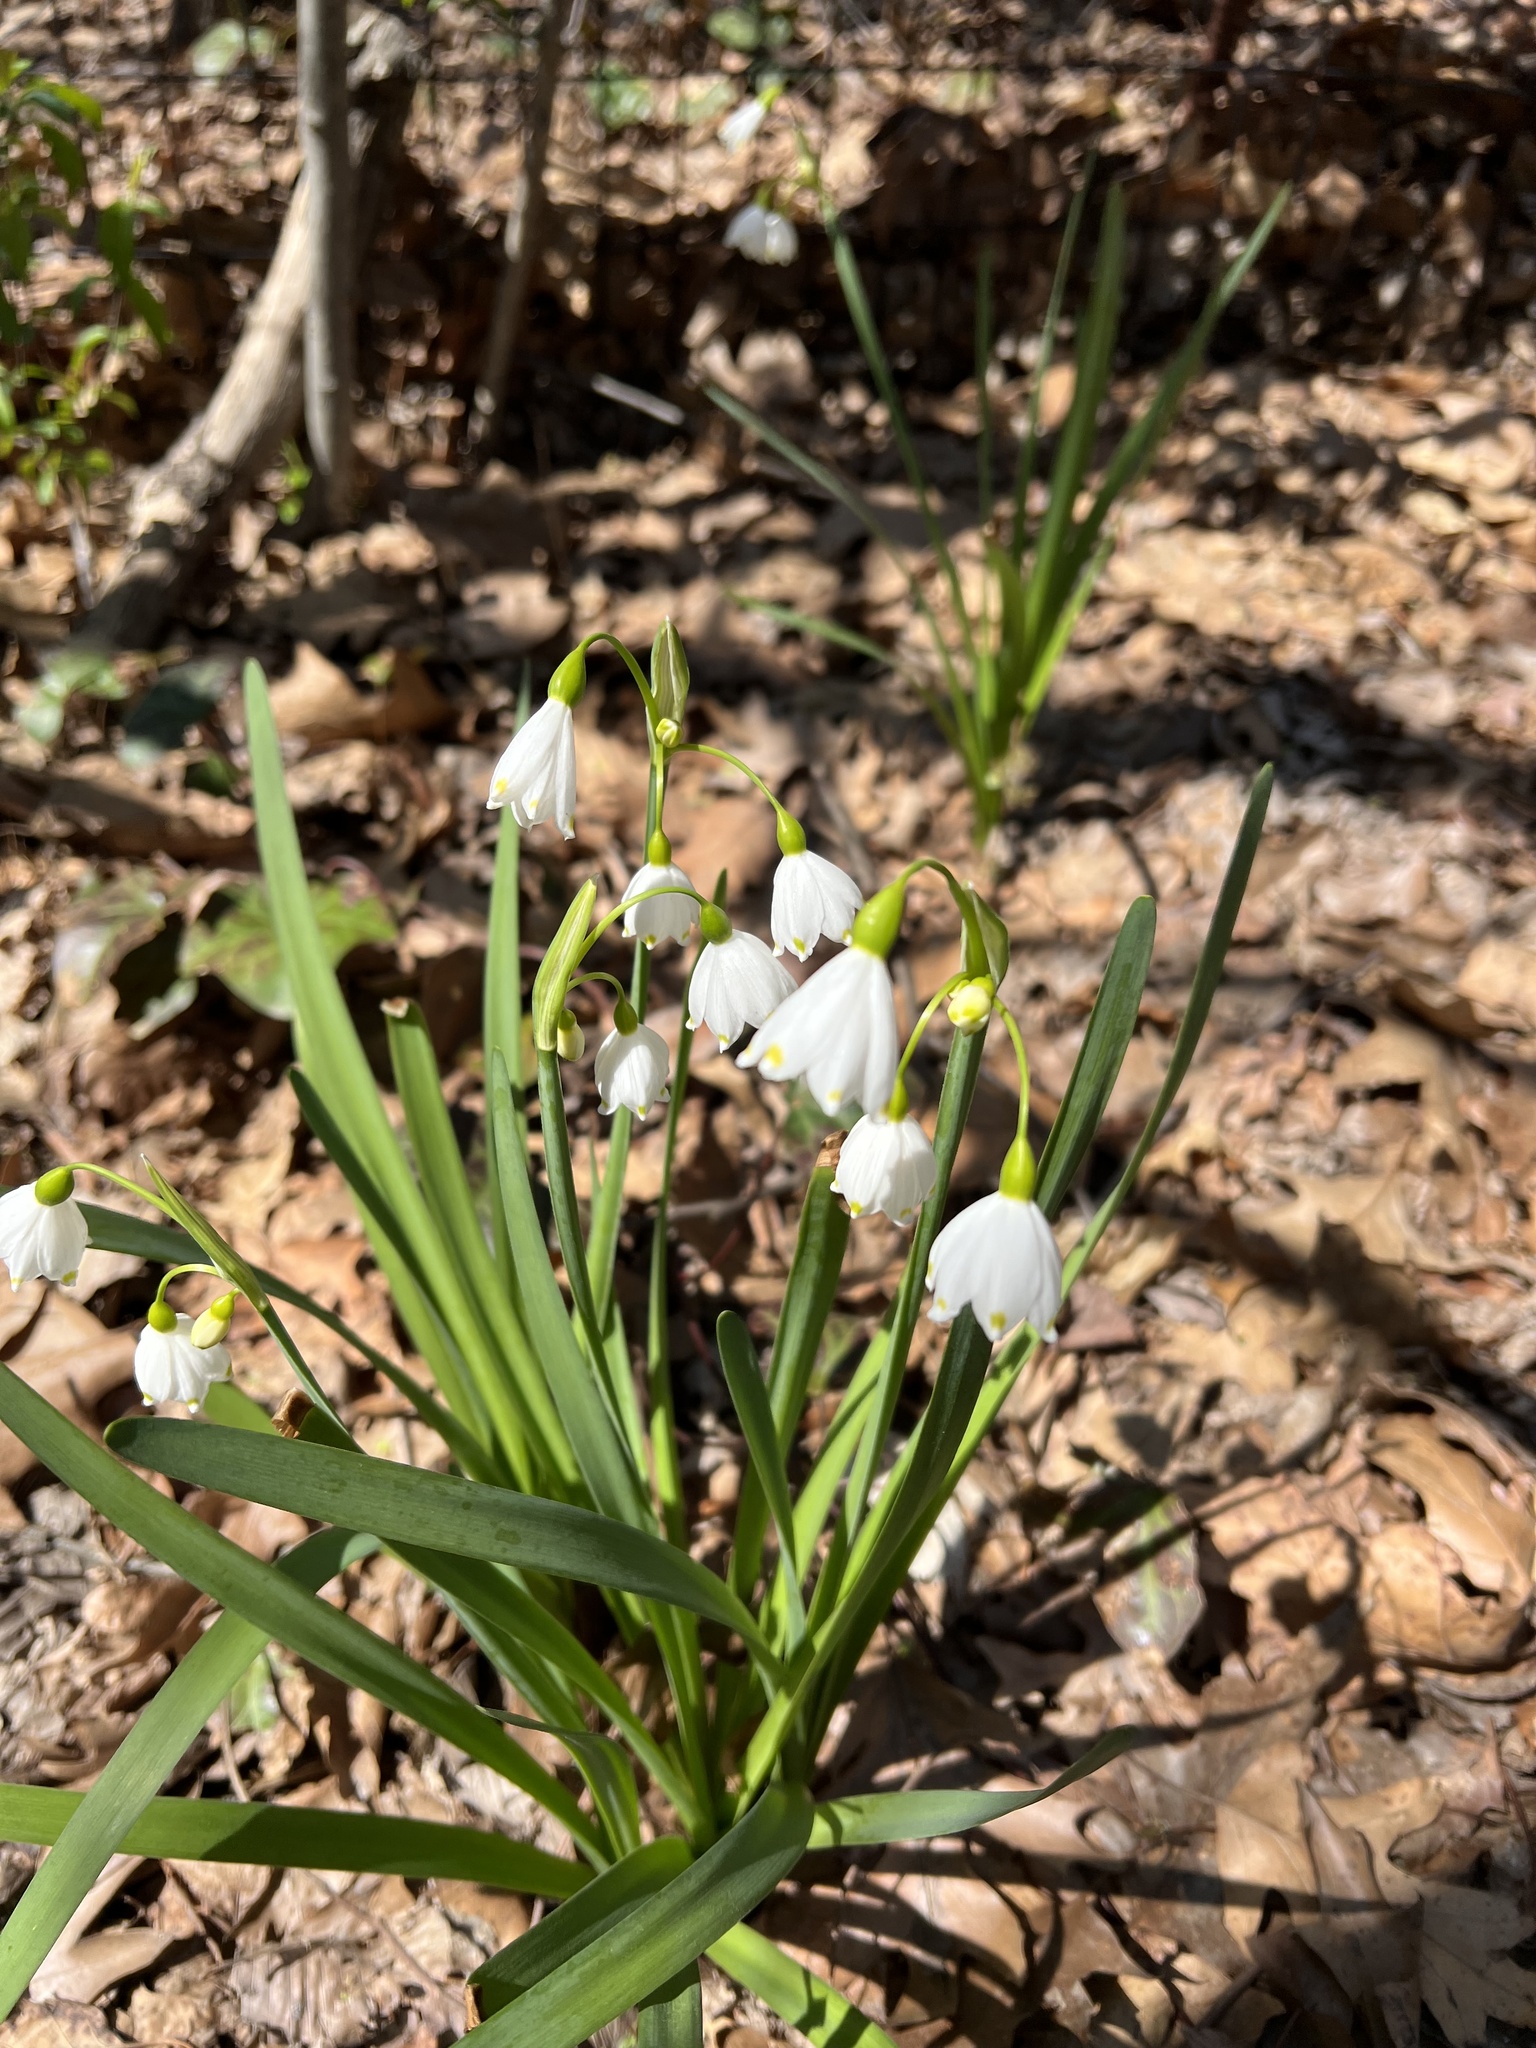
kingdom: Plantae
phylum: Tracheophyta
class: Liliopsida
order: Asparagales
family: Amaryllidaceae
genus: Leucojum
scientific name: Leucojum aestivum
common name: Summer snowflake
